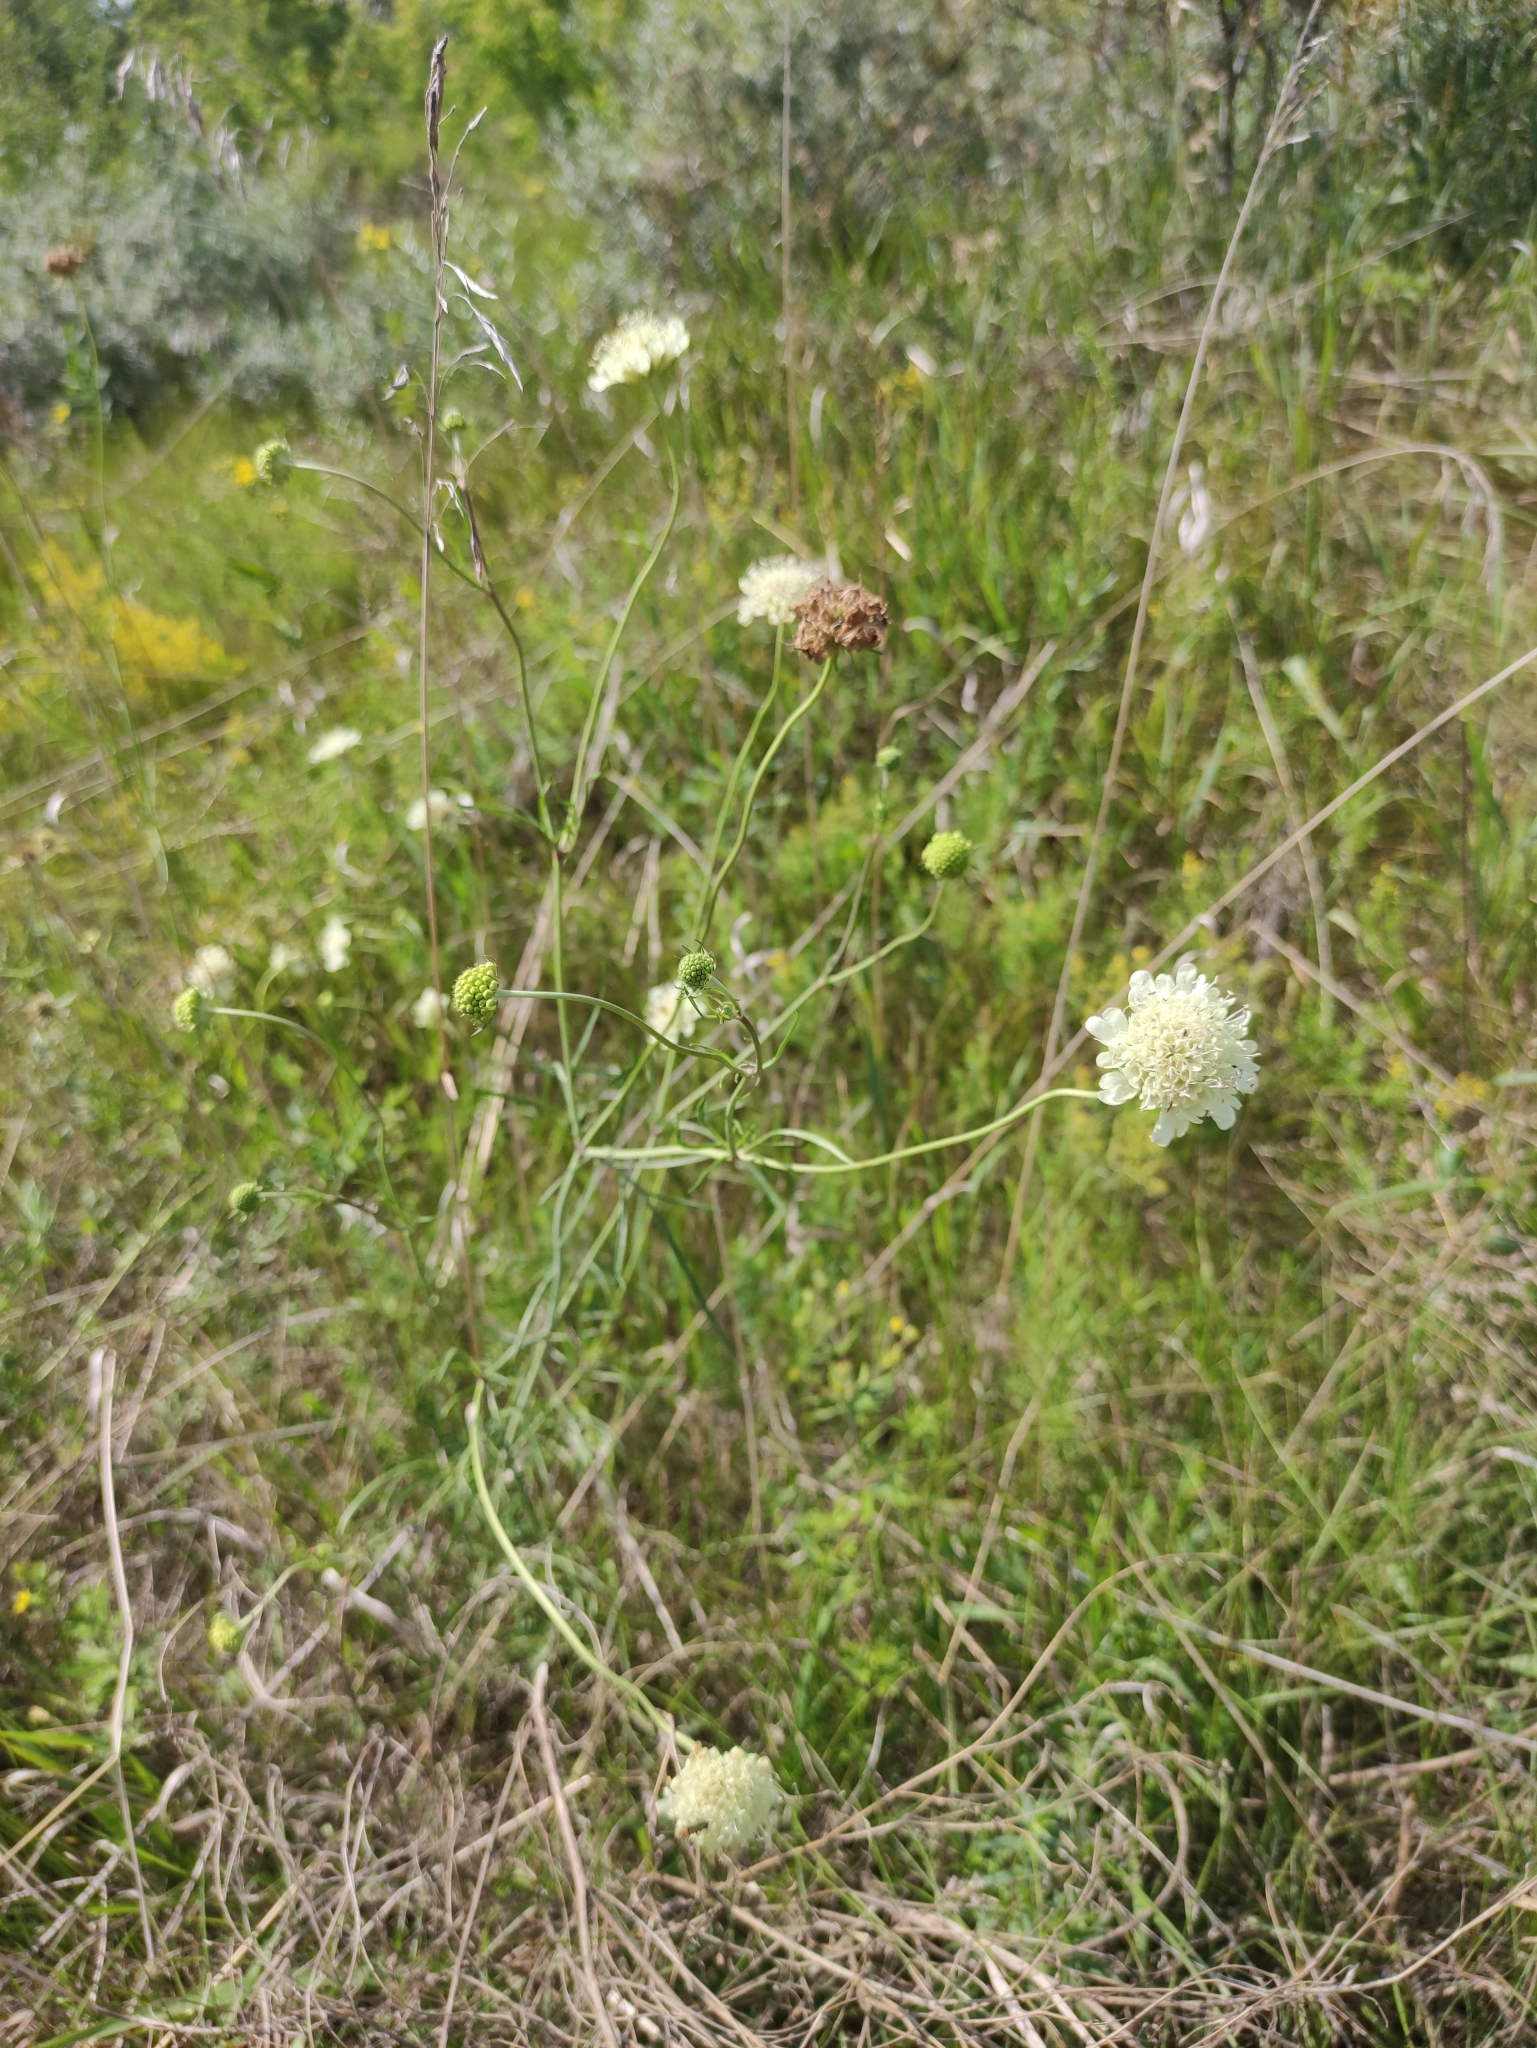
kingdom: Plantae
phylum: Tracheophyta
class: Magnoliopsida
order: Dipsacales
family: Caprifoliaceae
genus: Scabiosa
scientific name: Scabiosa ochroleuca
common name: Cream pincushions
